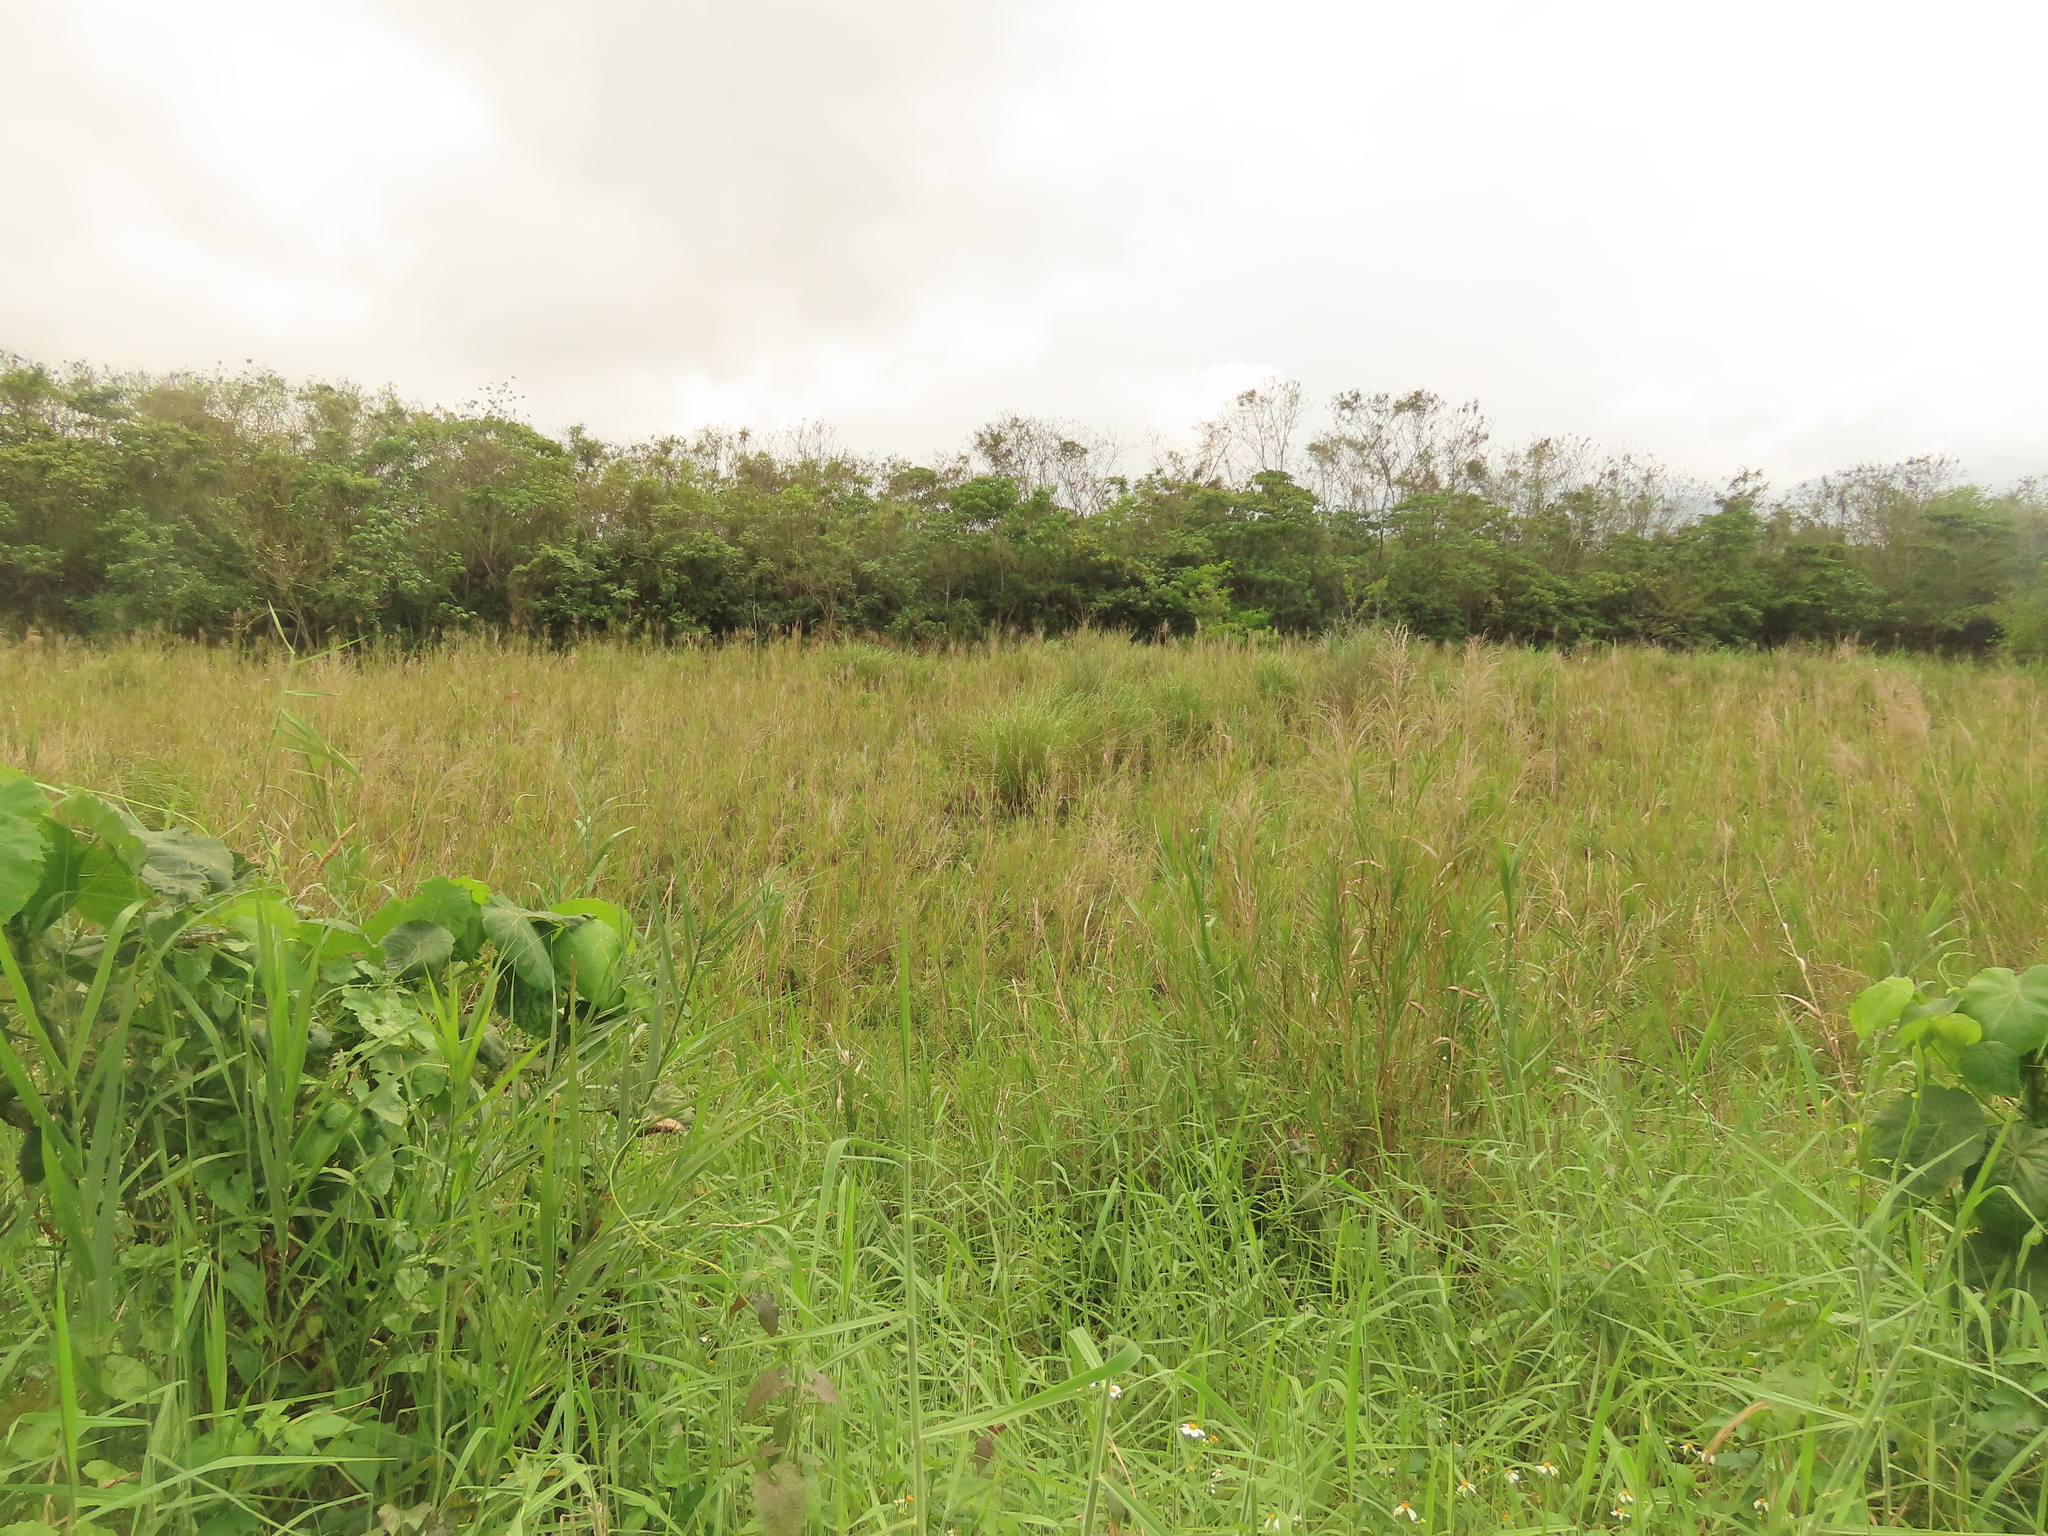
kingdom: Plantae
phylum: Tracheophyta
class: Liliopsida
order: Poales
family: Cyperaceae
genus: Cladium
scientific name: Cladium mariscus
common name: Great fen-sedge
